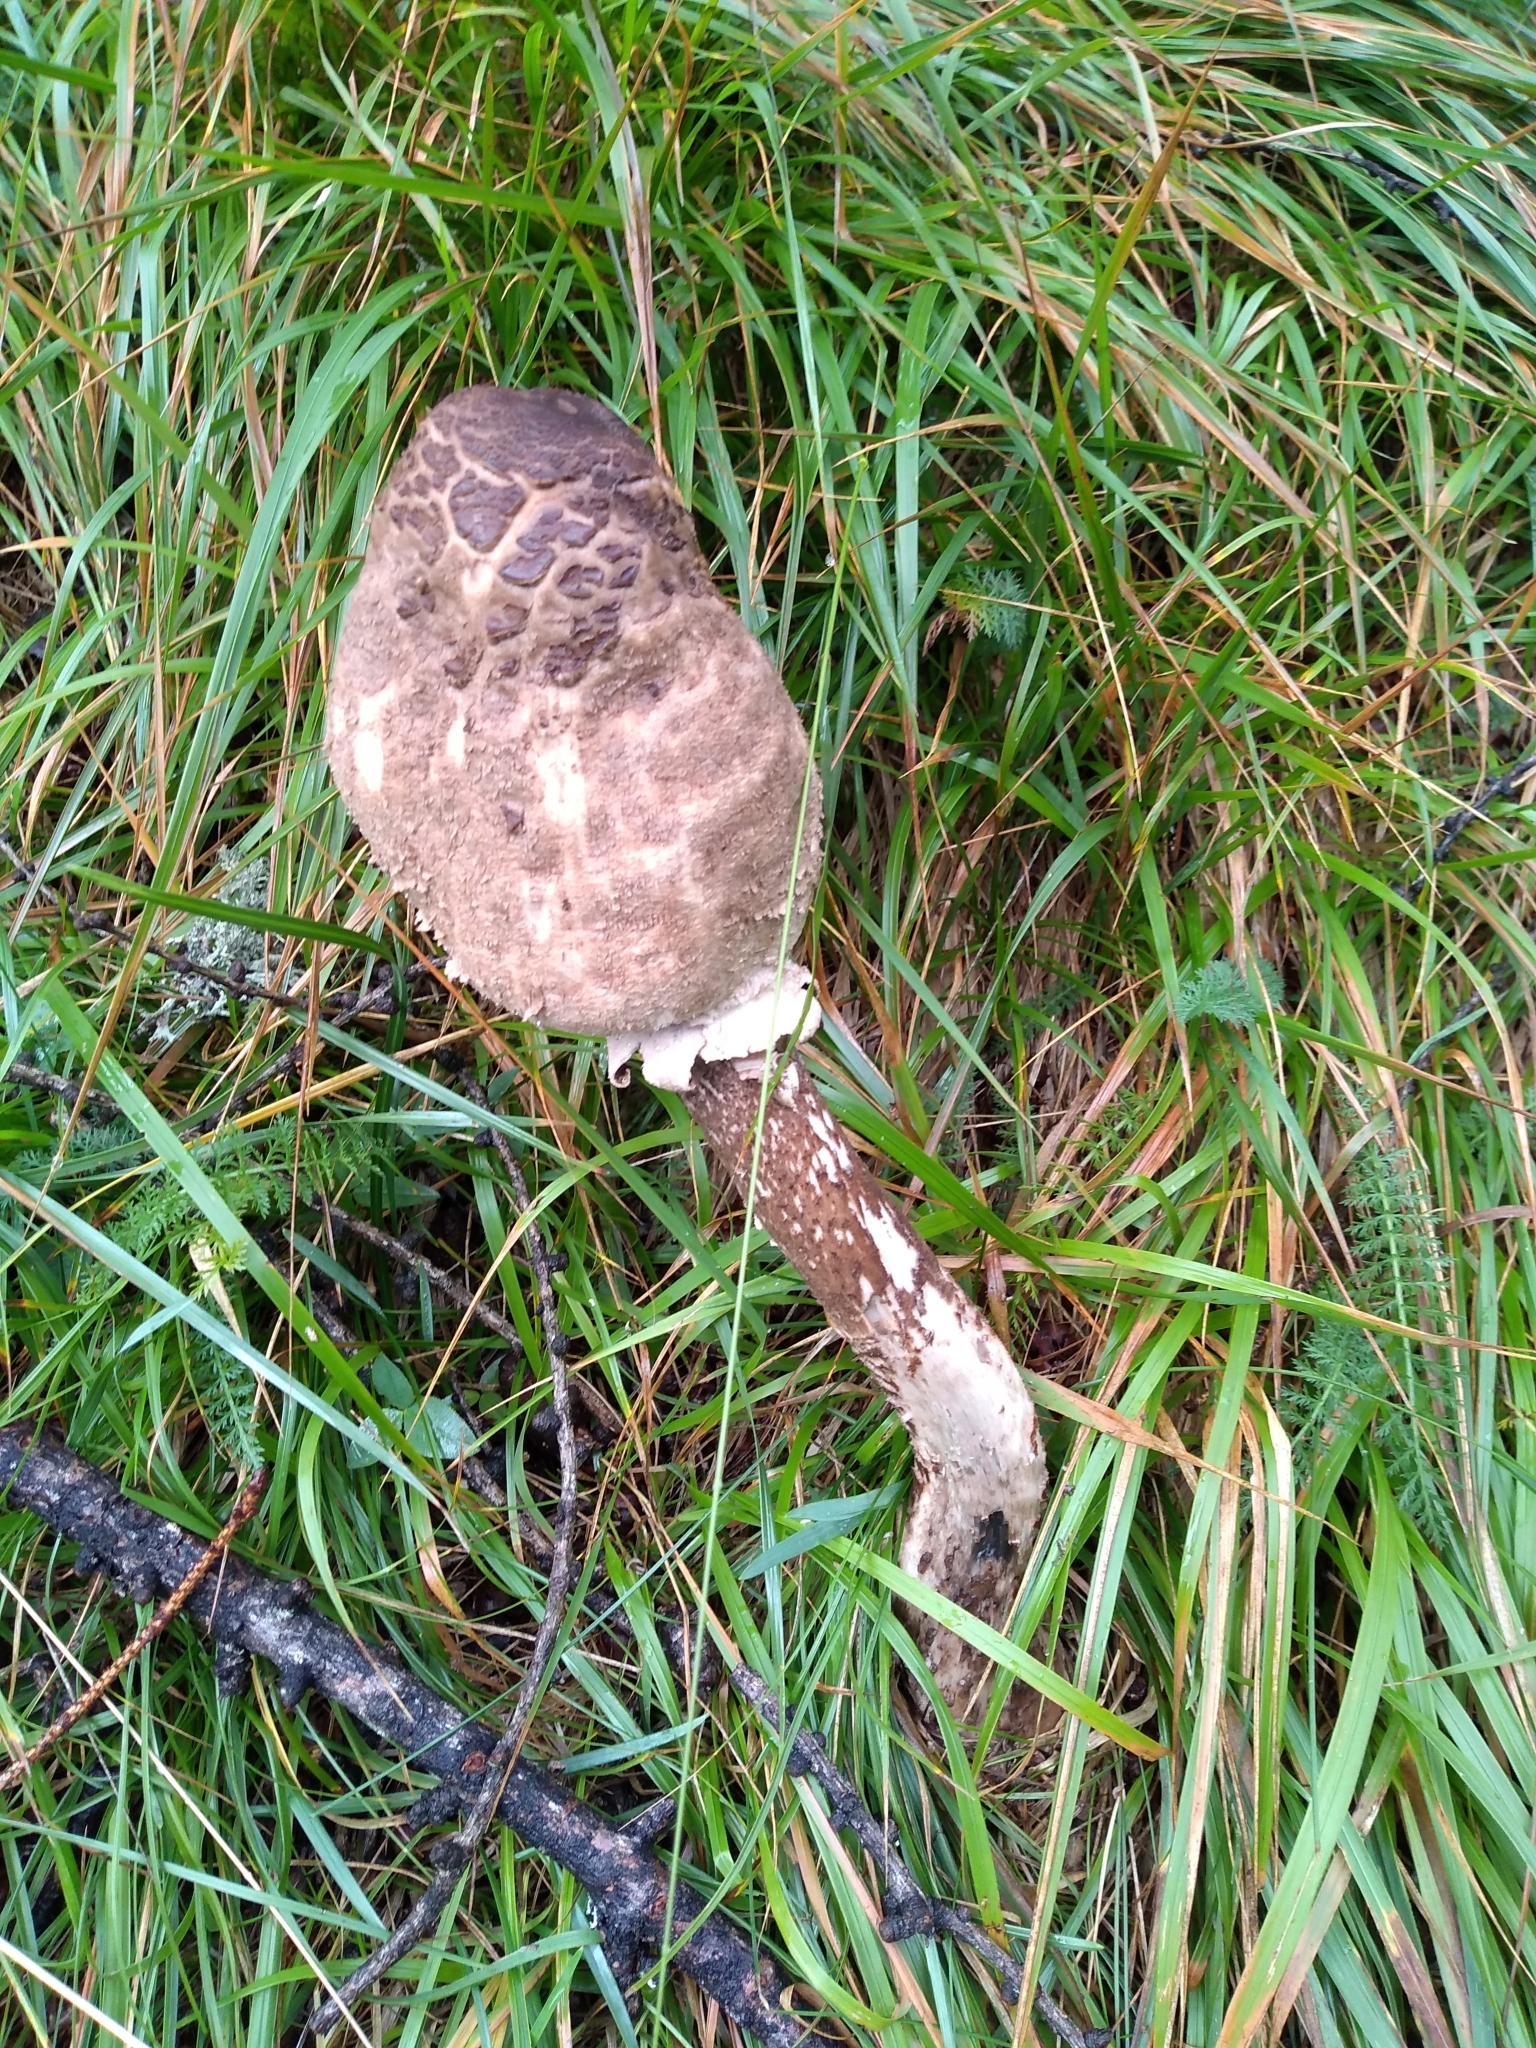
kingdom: Fungi
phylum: Basidiomycota
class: Agaricomycetes
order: Agaricales
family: Agaricaceae
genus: Macrolepiota
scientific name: Macrolepiota procera
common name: Parasol
